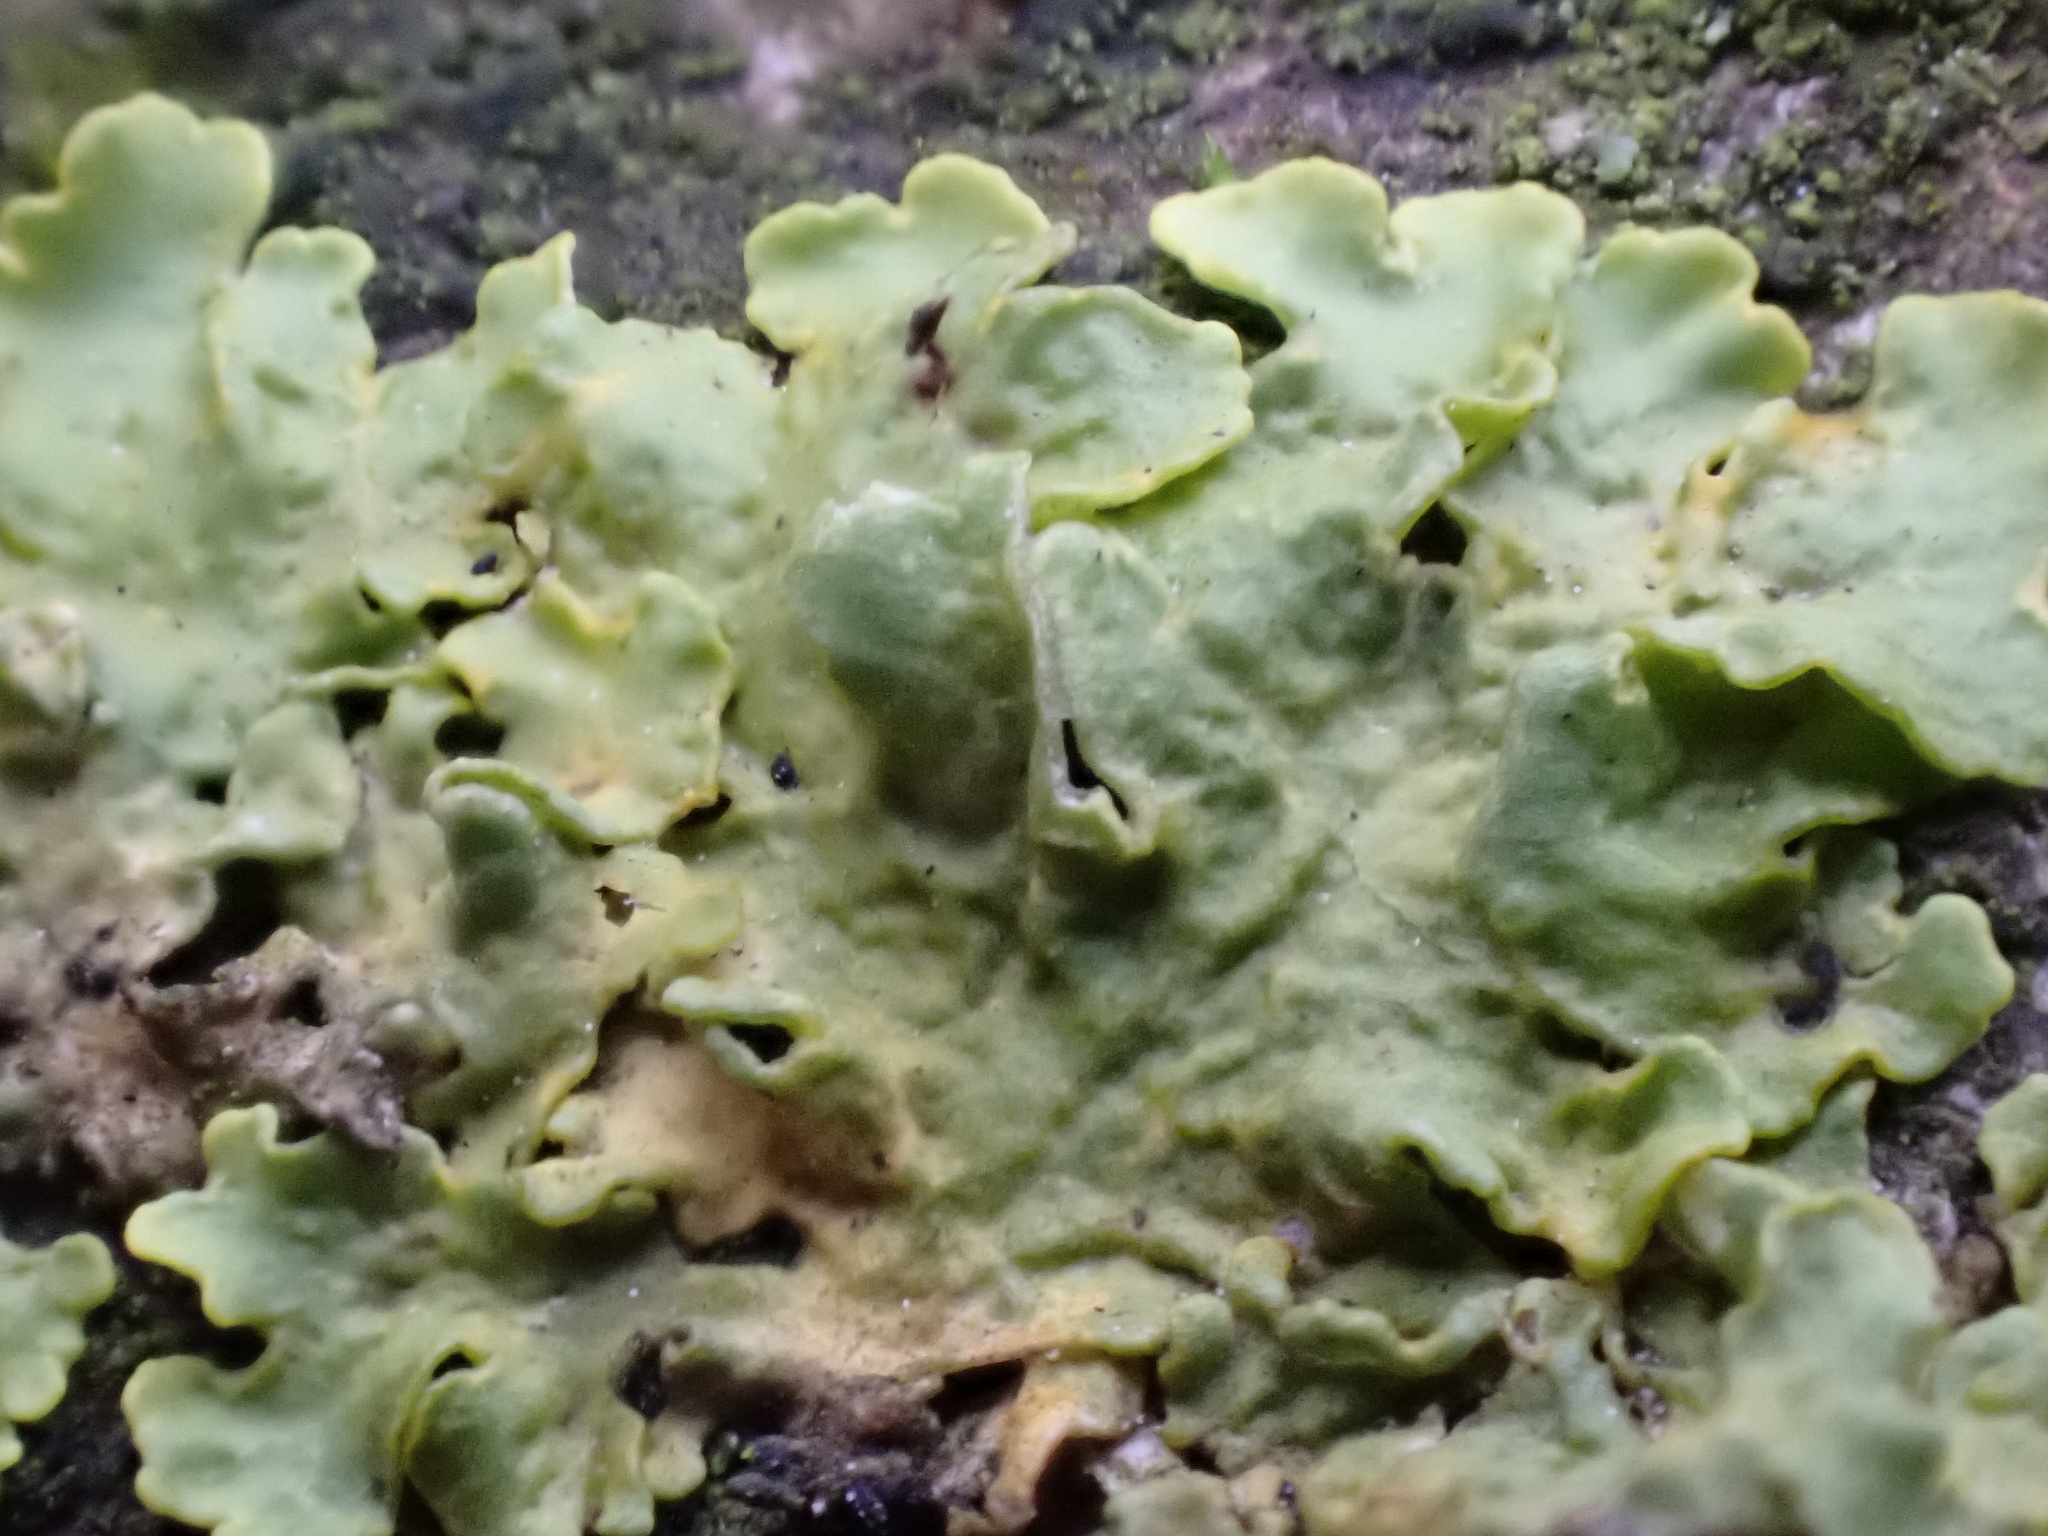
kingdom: Fungi
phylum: Ascomycota
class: Lecanoromycetes
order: Teloschistales
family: Teloschistaceae
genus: Xanthoria
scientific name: Xanthoria parietina
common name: Common orange lichen
